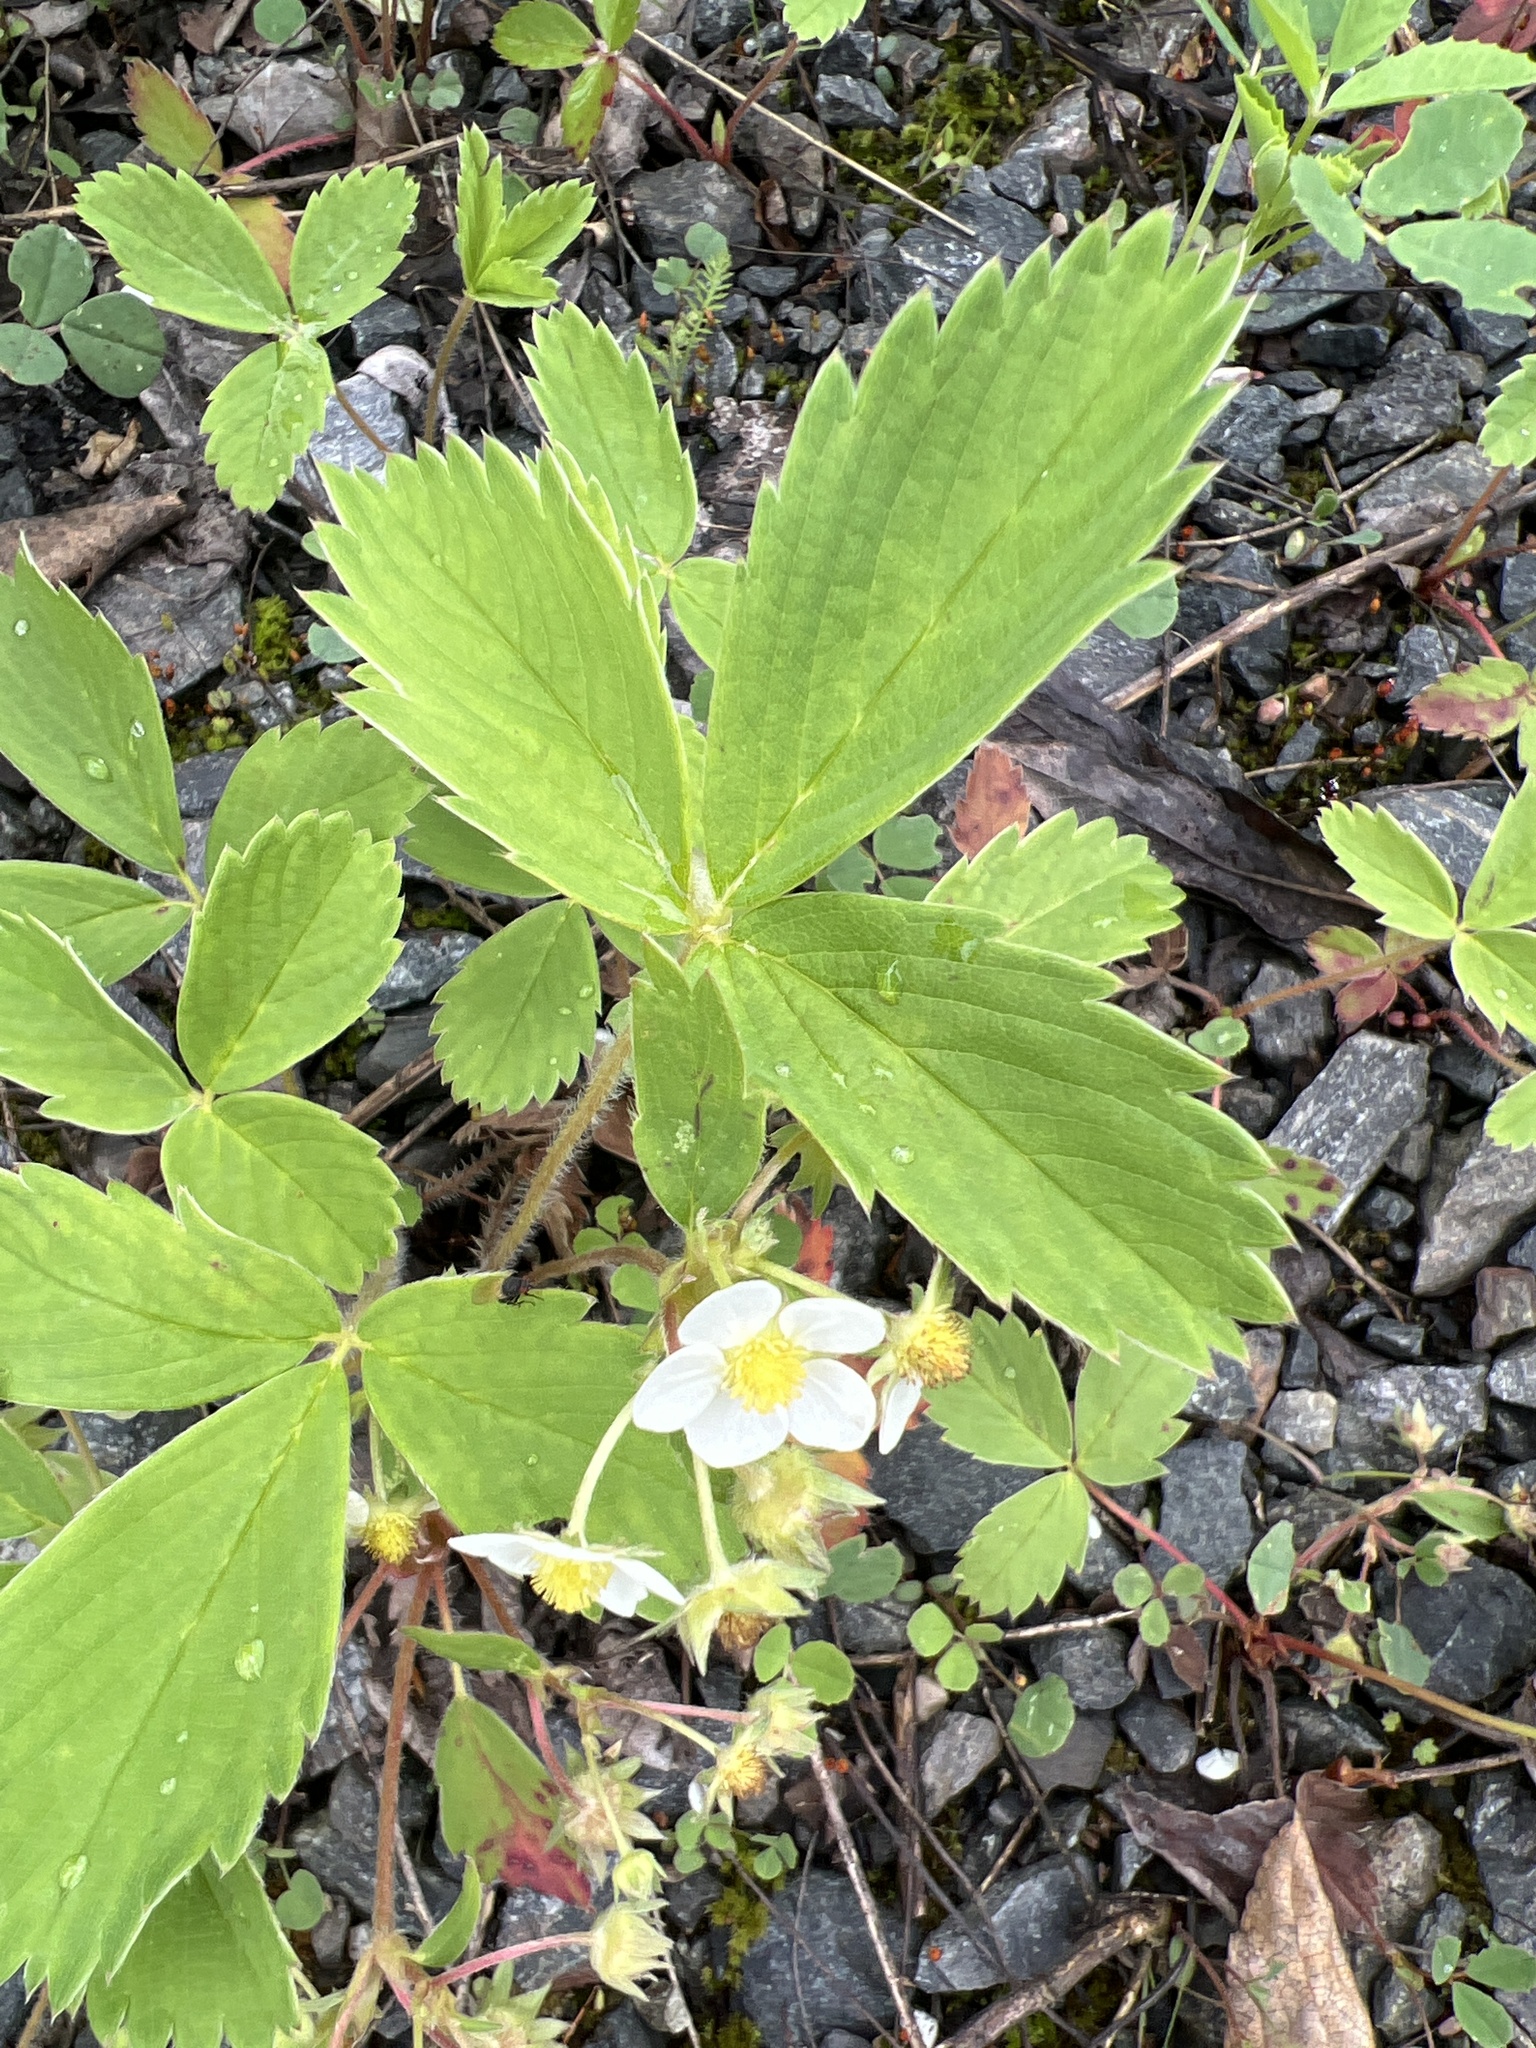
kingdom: Plantae
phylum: Tracheophyta
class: Magnoliopsida
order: Rosales
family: Rosaceae
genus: Fragaria
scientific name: Fragaria virginiana
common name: Thickleaved wild strawberry
